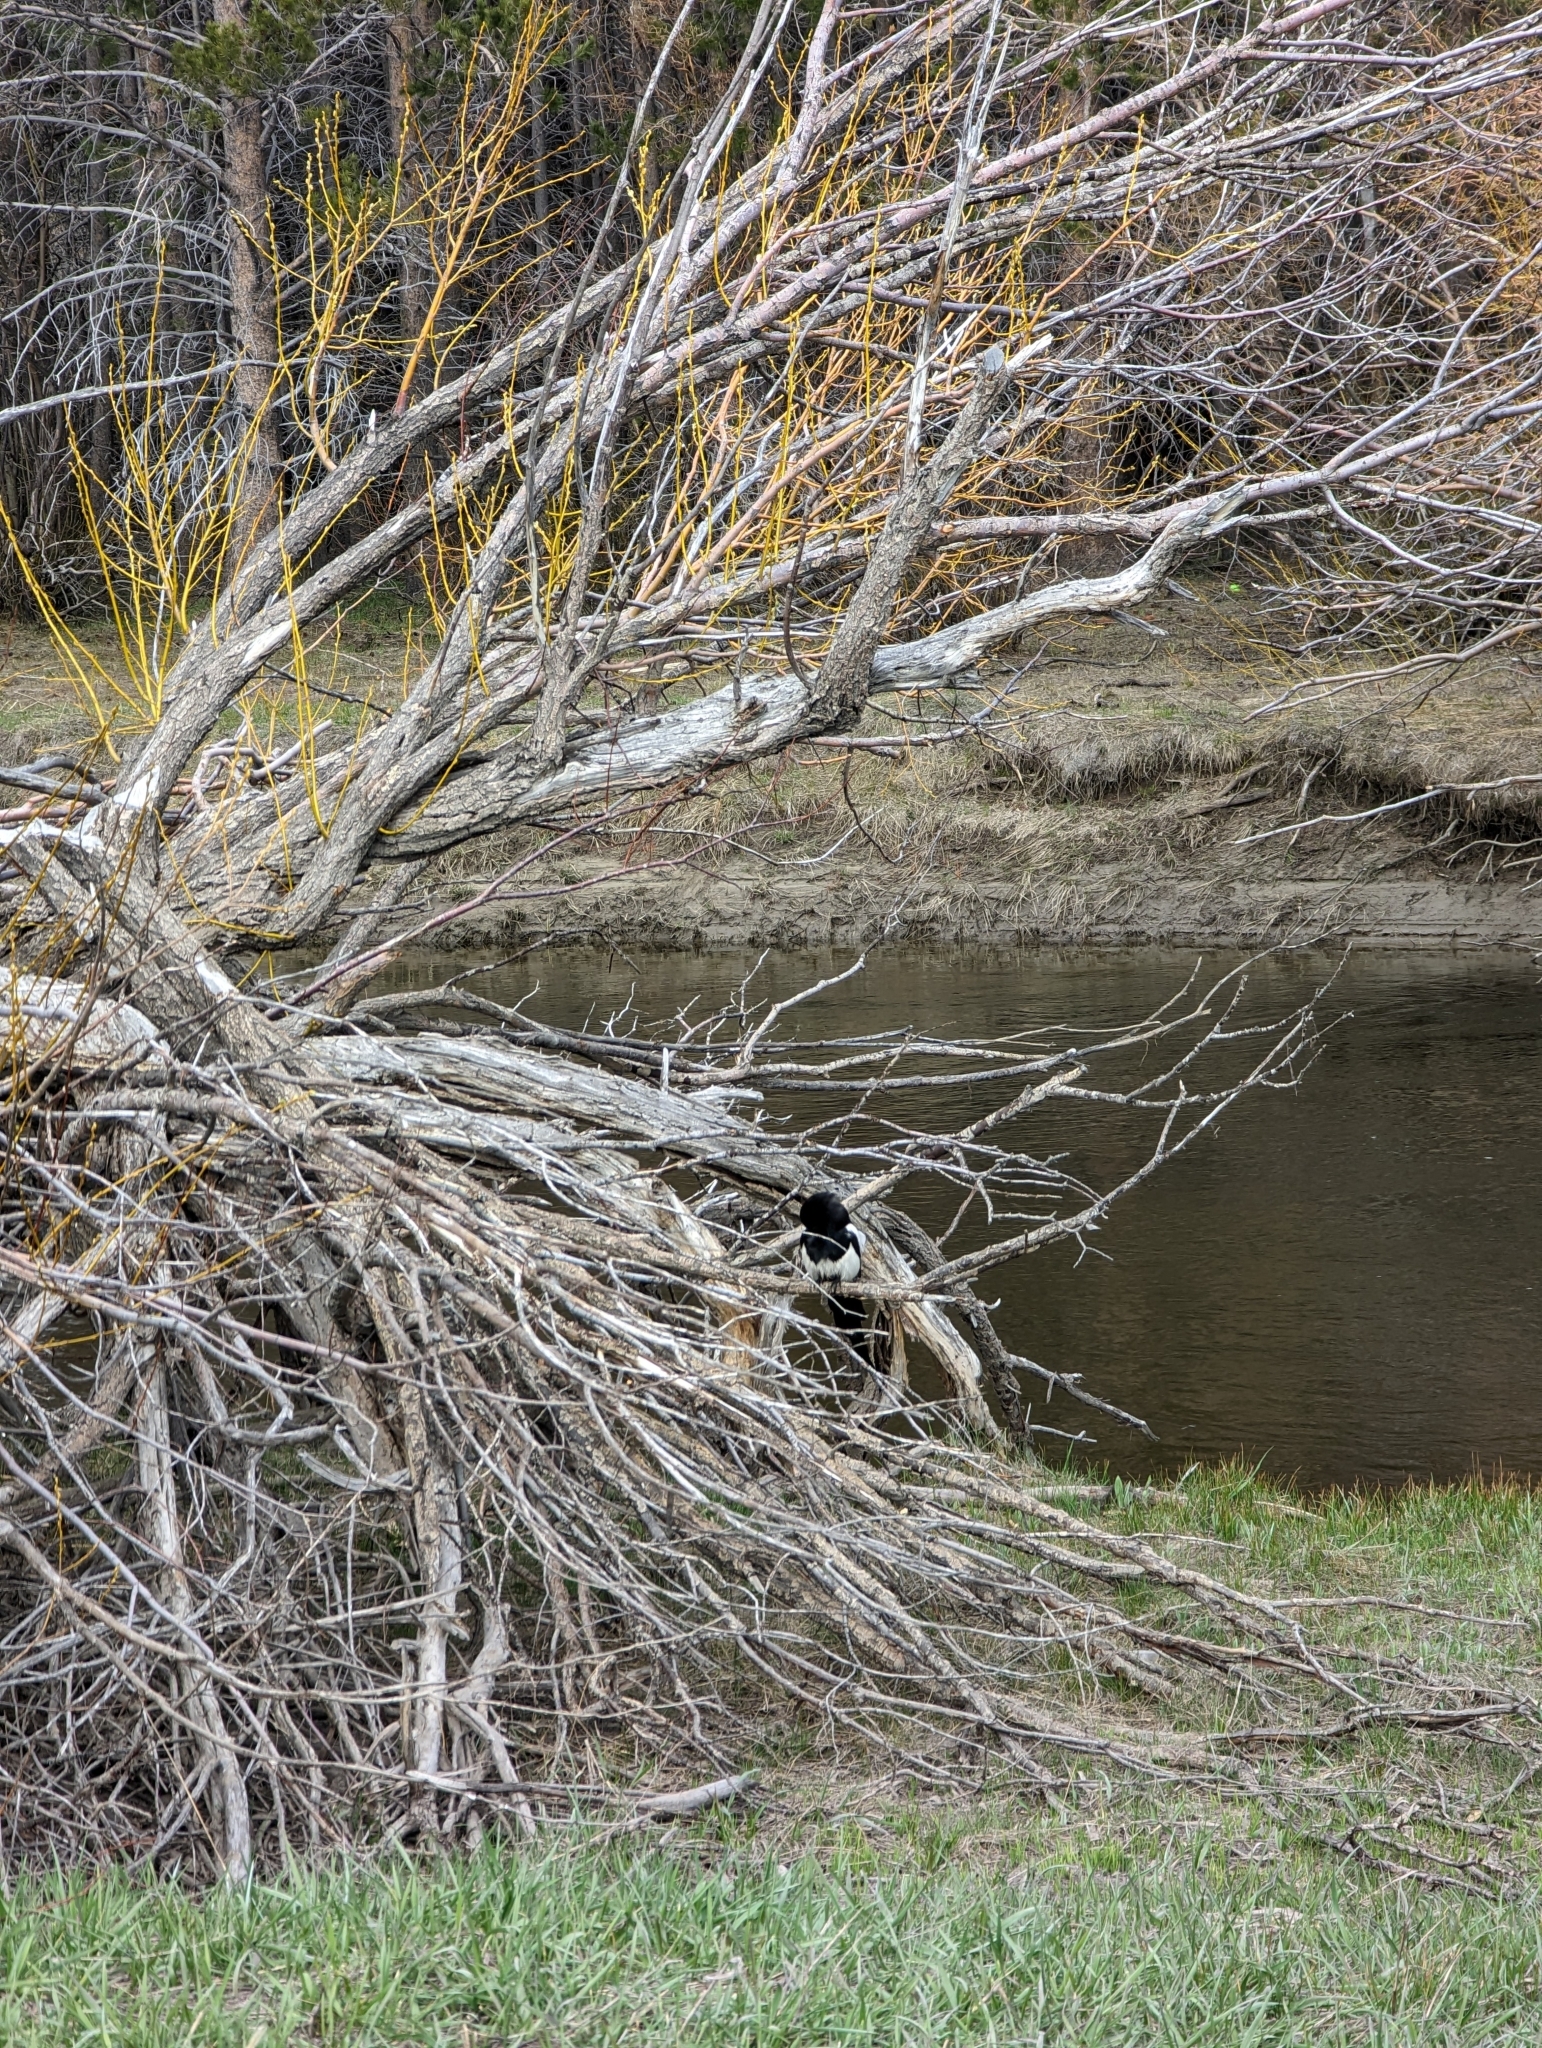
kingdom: Animalia
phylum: Chordata
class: Aves
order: Passeriformes
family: Corvidae
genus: Pica
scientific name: Pica hudsonia
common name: Black-billed magpie
